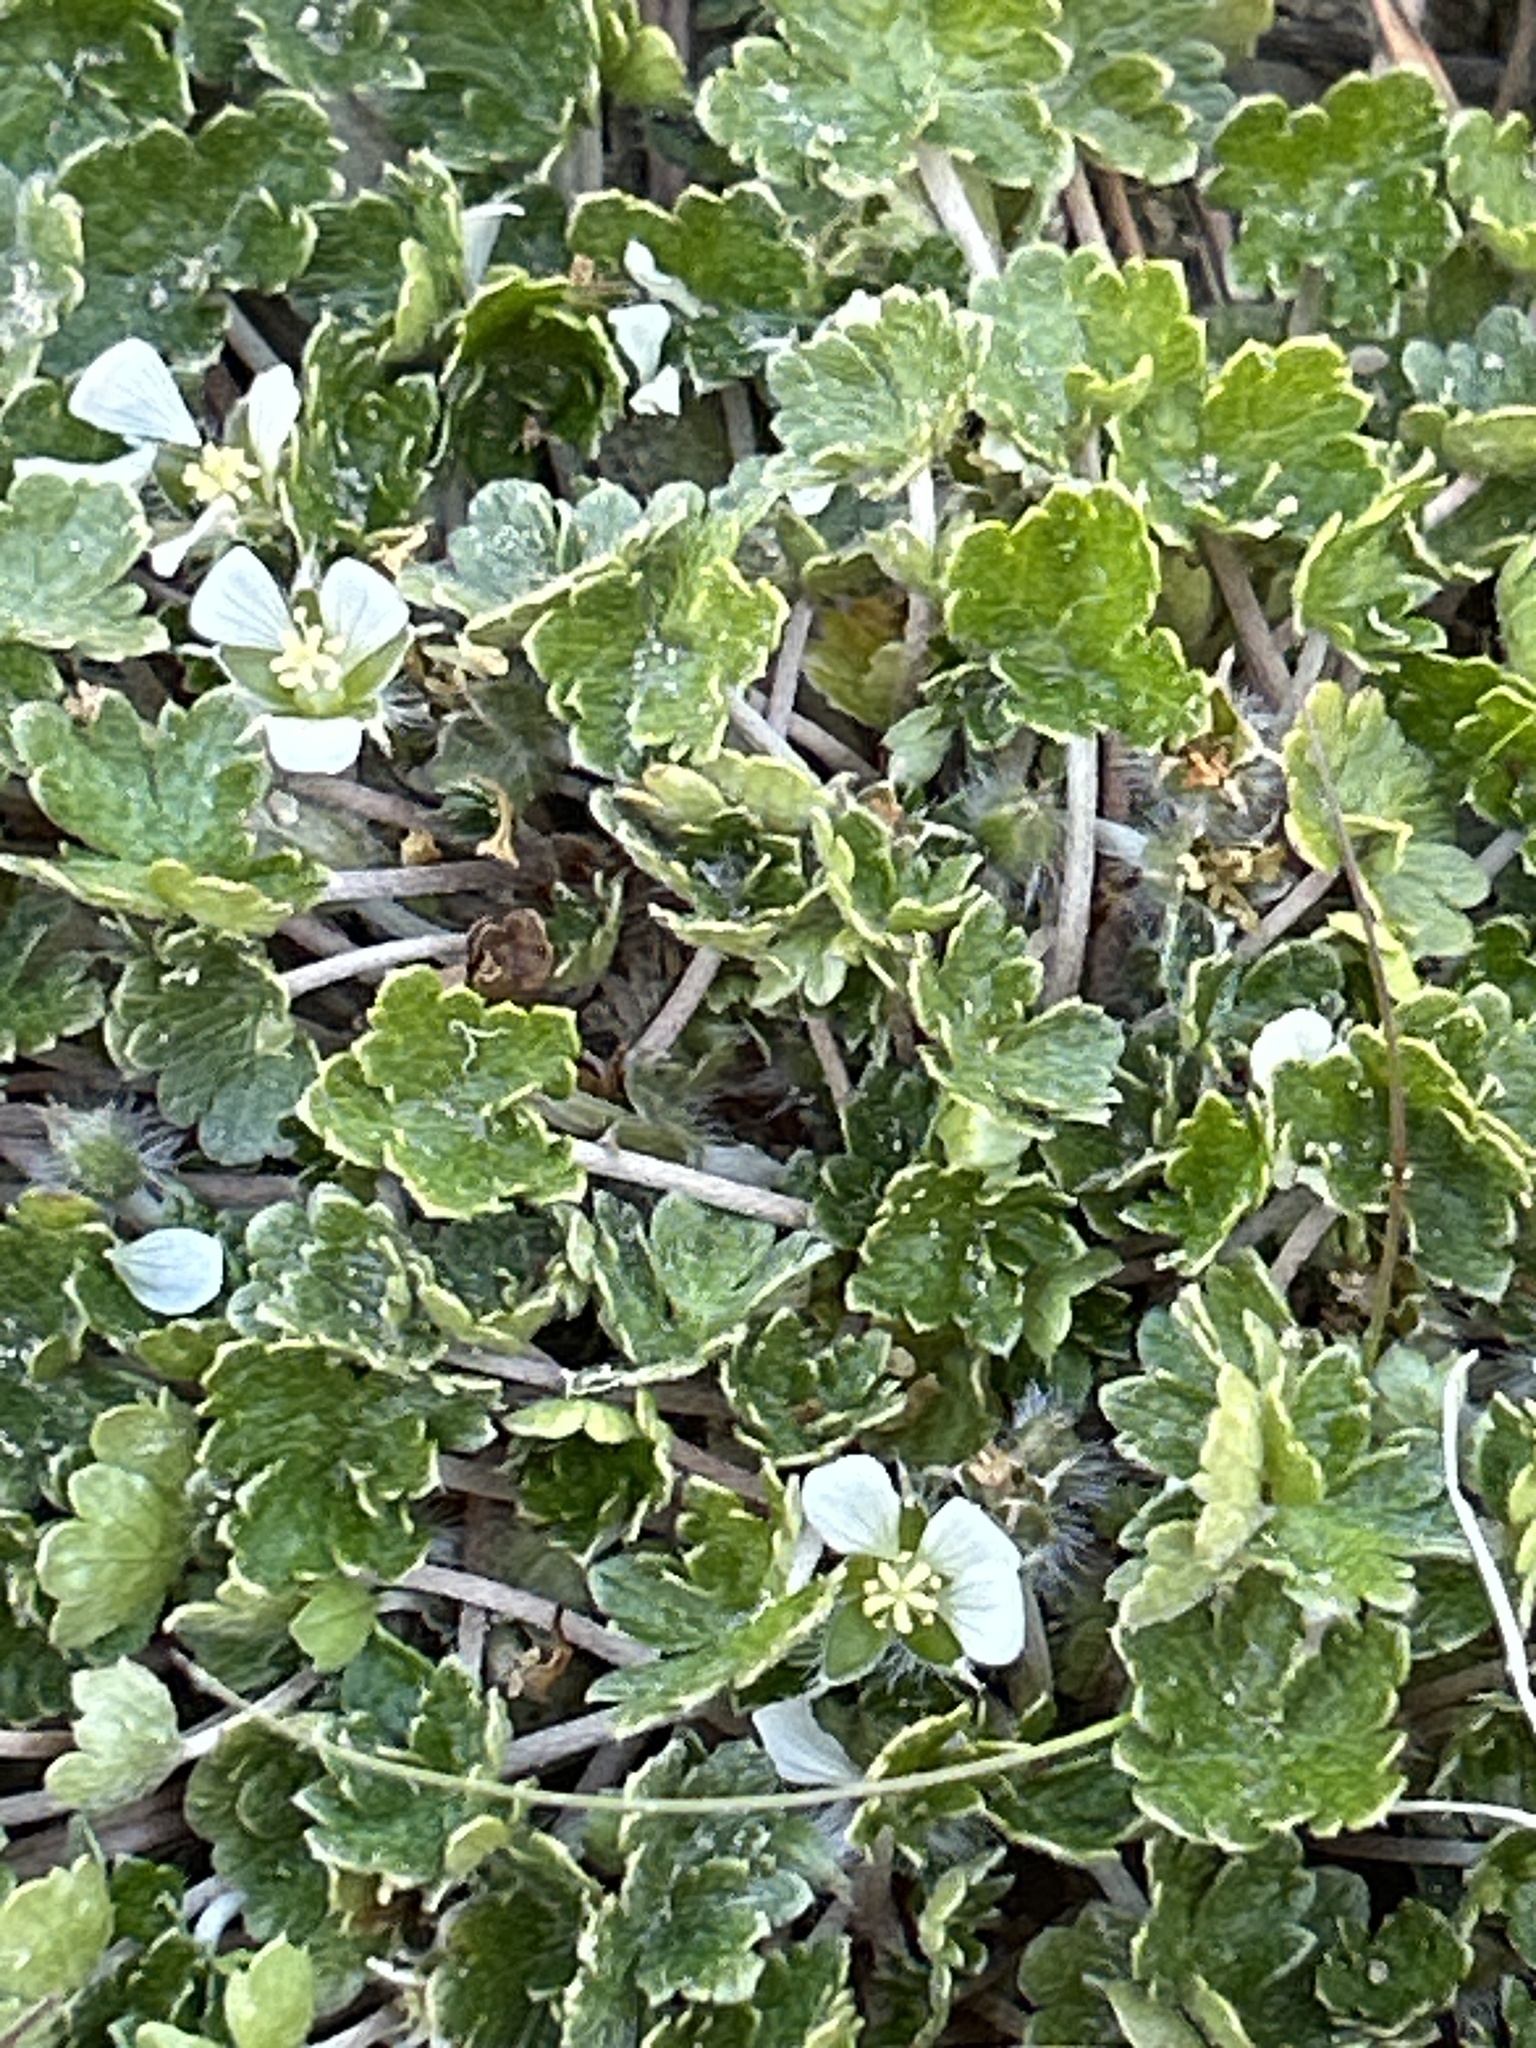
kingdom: Plantae
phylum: Tracheophyta
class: Magnoliopsida
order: Geraniales
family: Geraniaceae
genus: Geranium
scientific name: Geranium brevicaule
